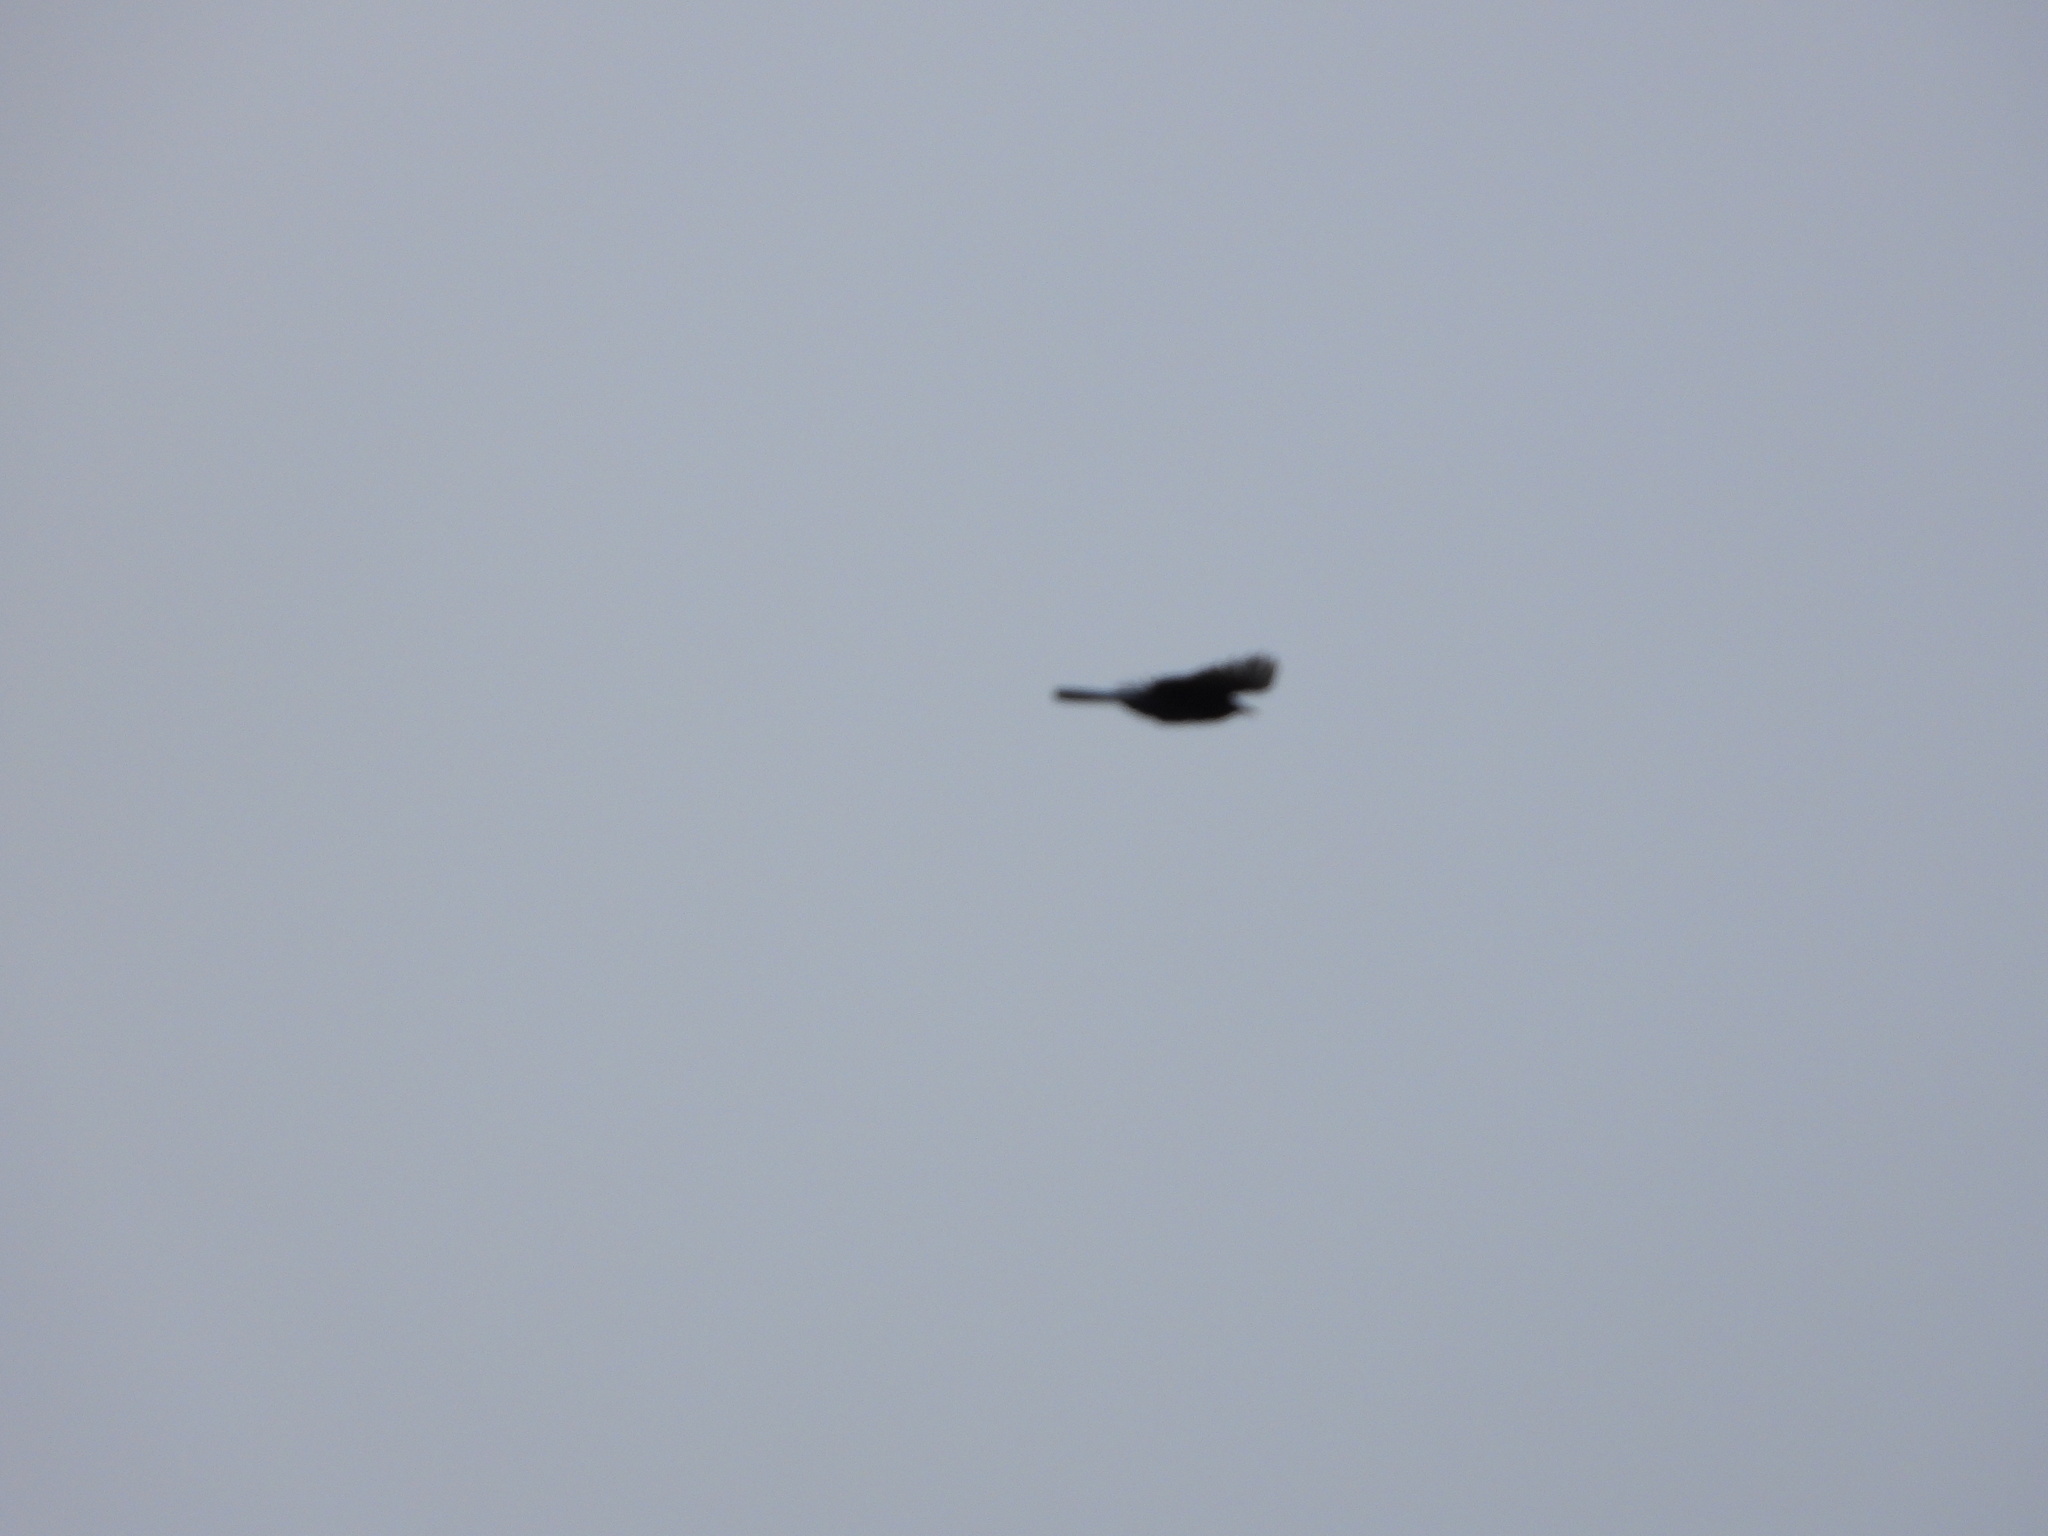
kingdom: Animalia
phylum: Chordata
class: Aves
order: Passeriformes
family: Corvidae
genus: Cyanocitta
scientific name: Cyanocitta stelleri
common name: Steller's jay
